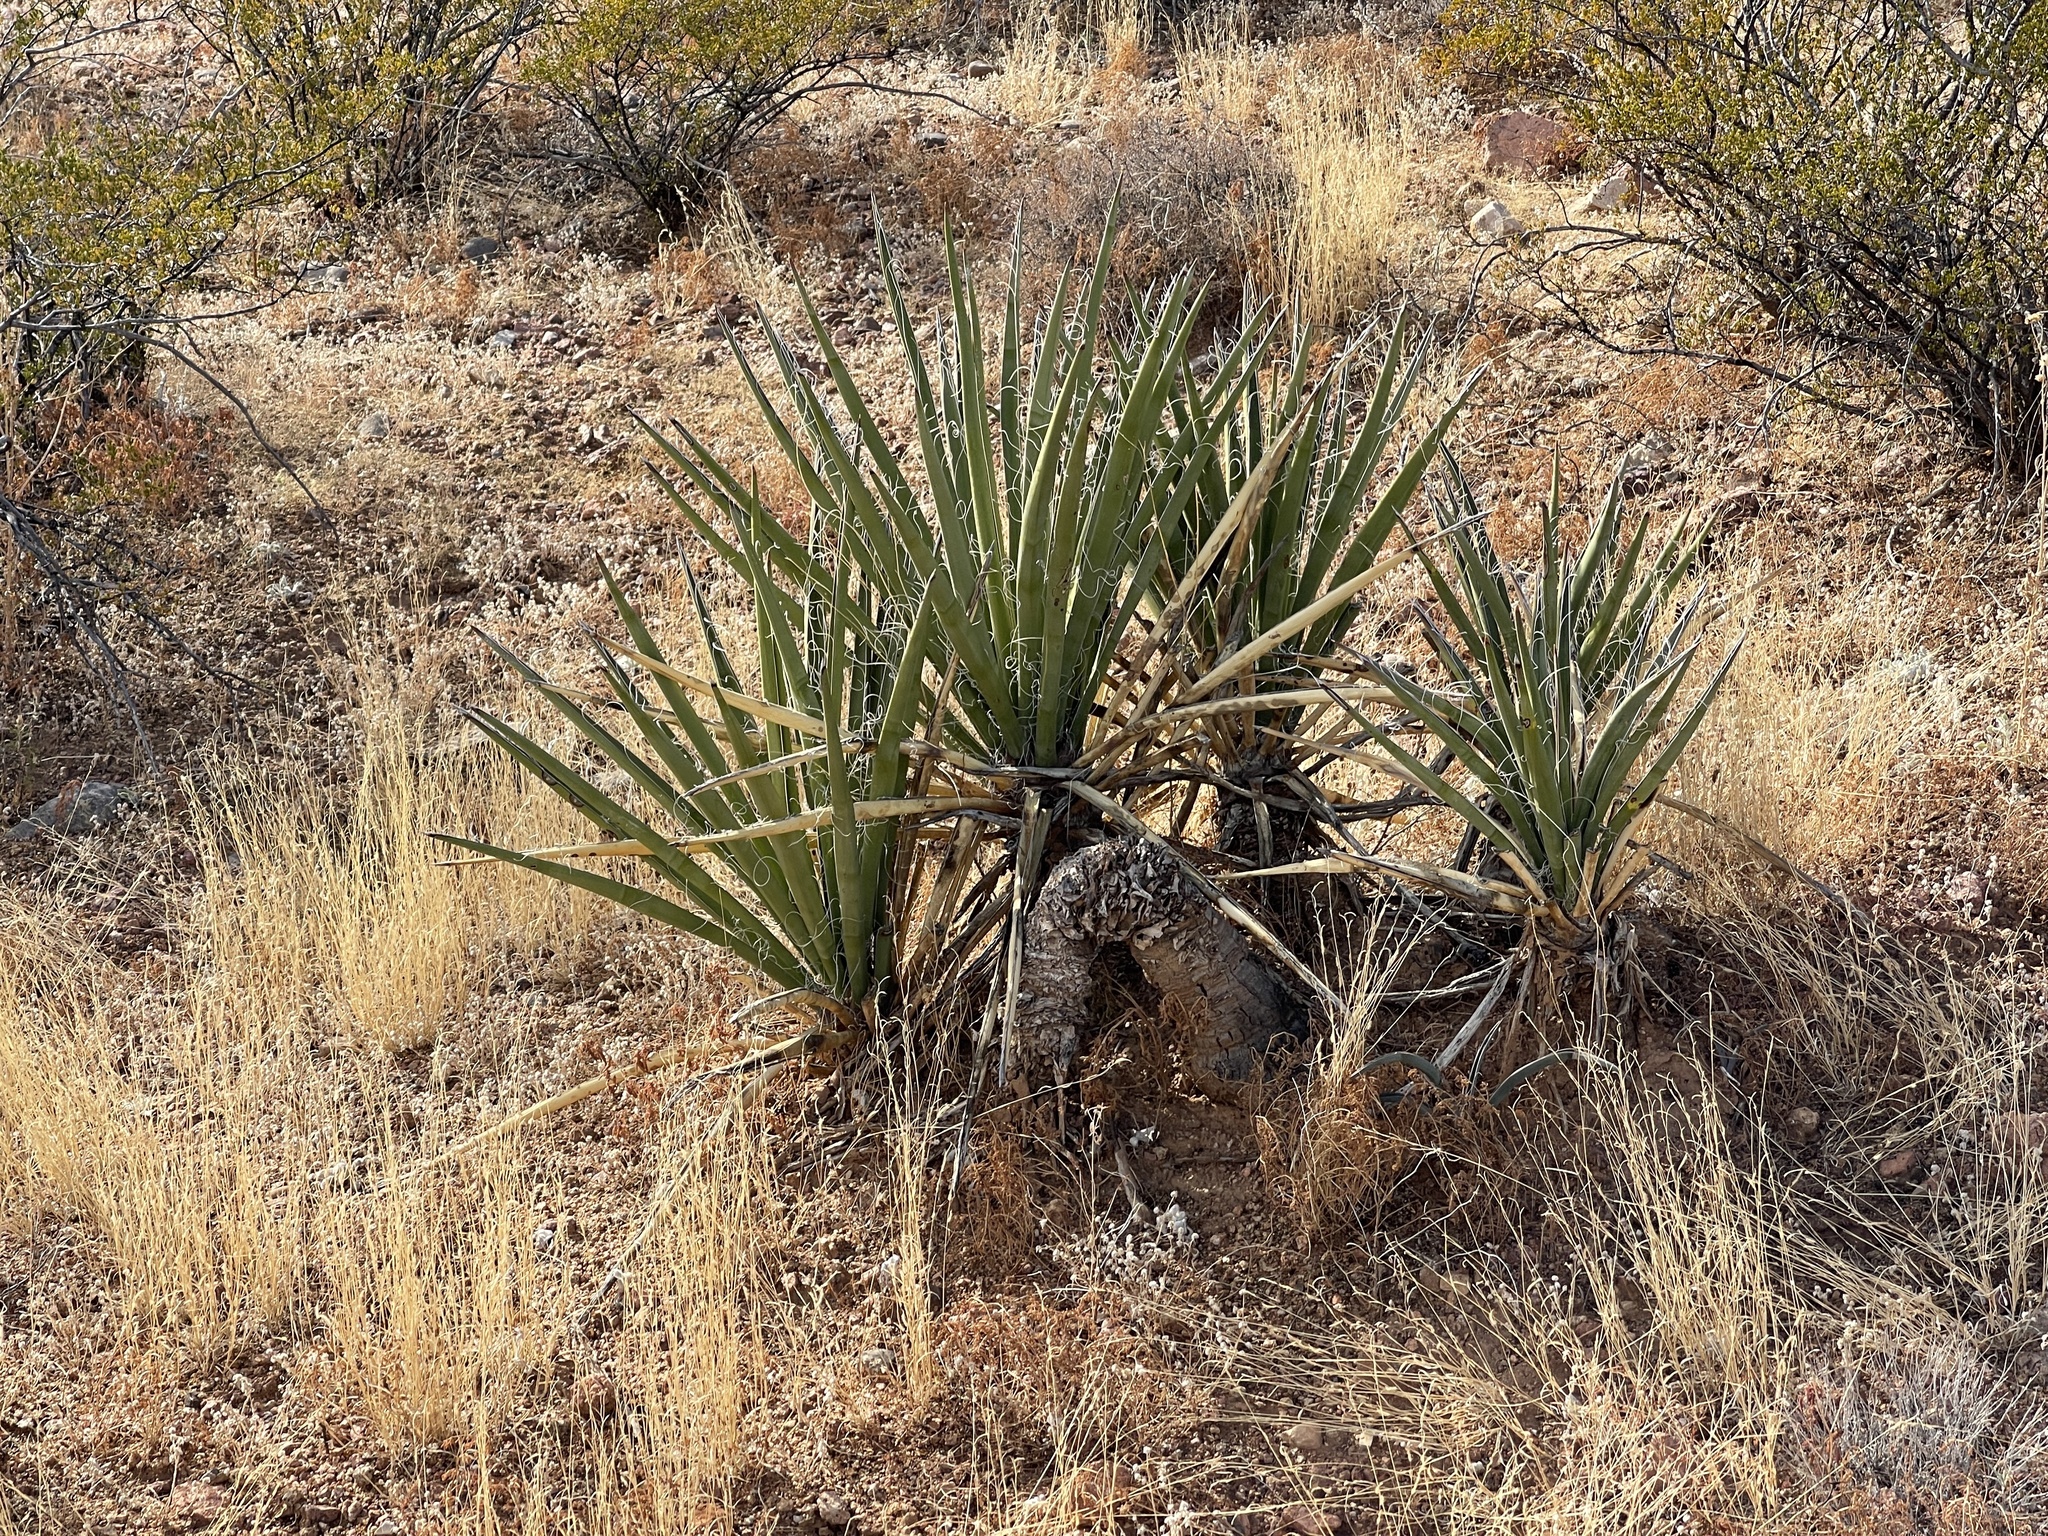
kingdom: Plantae
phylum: Tracheophyta
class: Liliopsida
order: Asparagales
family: Asparagaceae
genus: Yucca
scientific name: Yucca baccata
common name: Banana yucca
